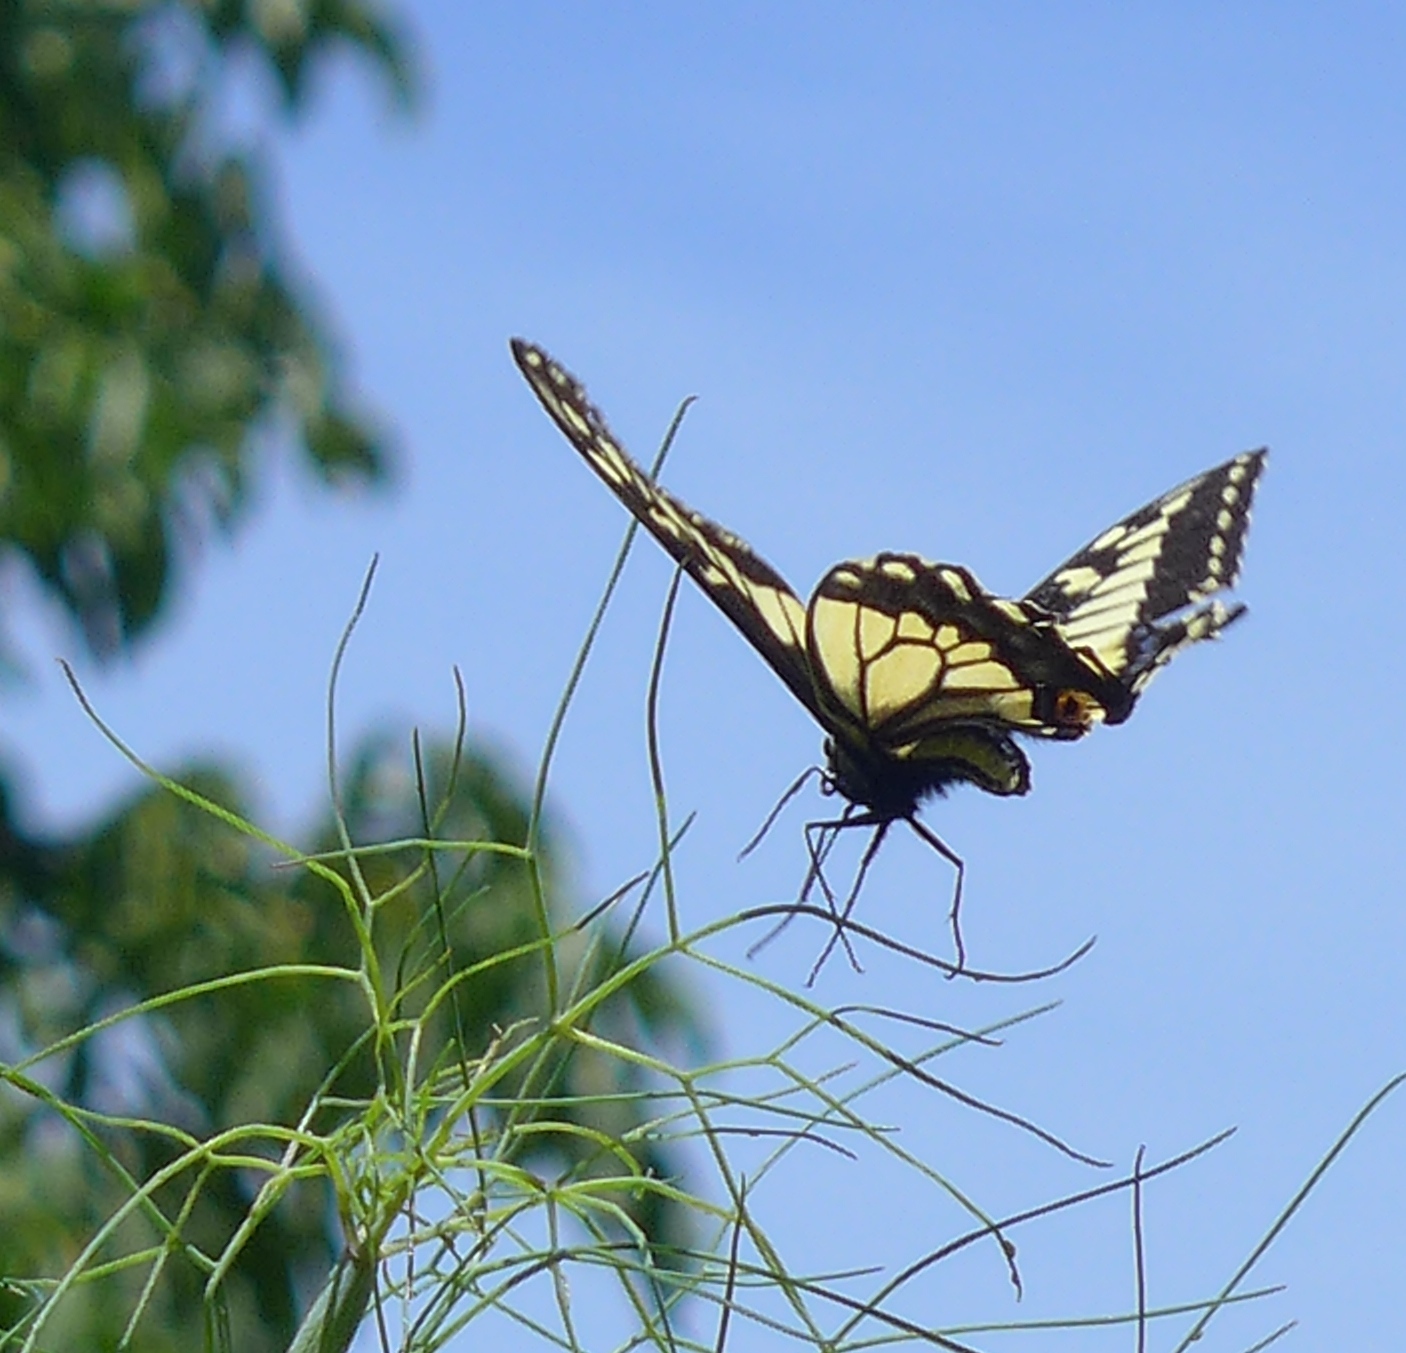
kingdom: Animalia
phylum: Arthropoda
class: Insecta
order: Lepidoptera
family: Papilionidae
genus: Papilio
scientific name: Papilio zelicaon
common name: Anise swallowtail
